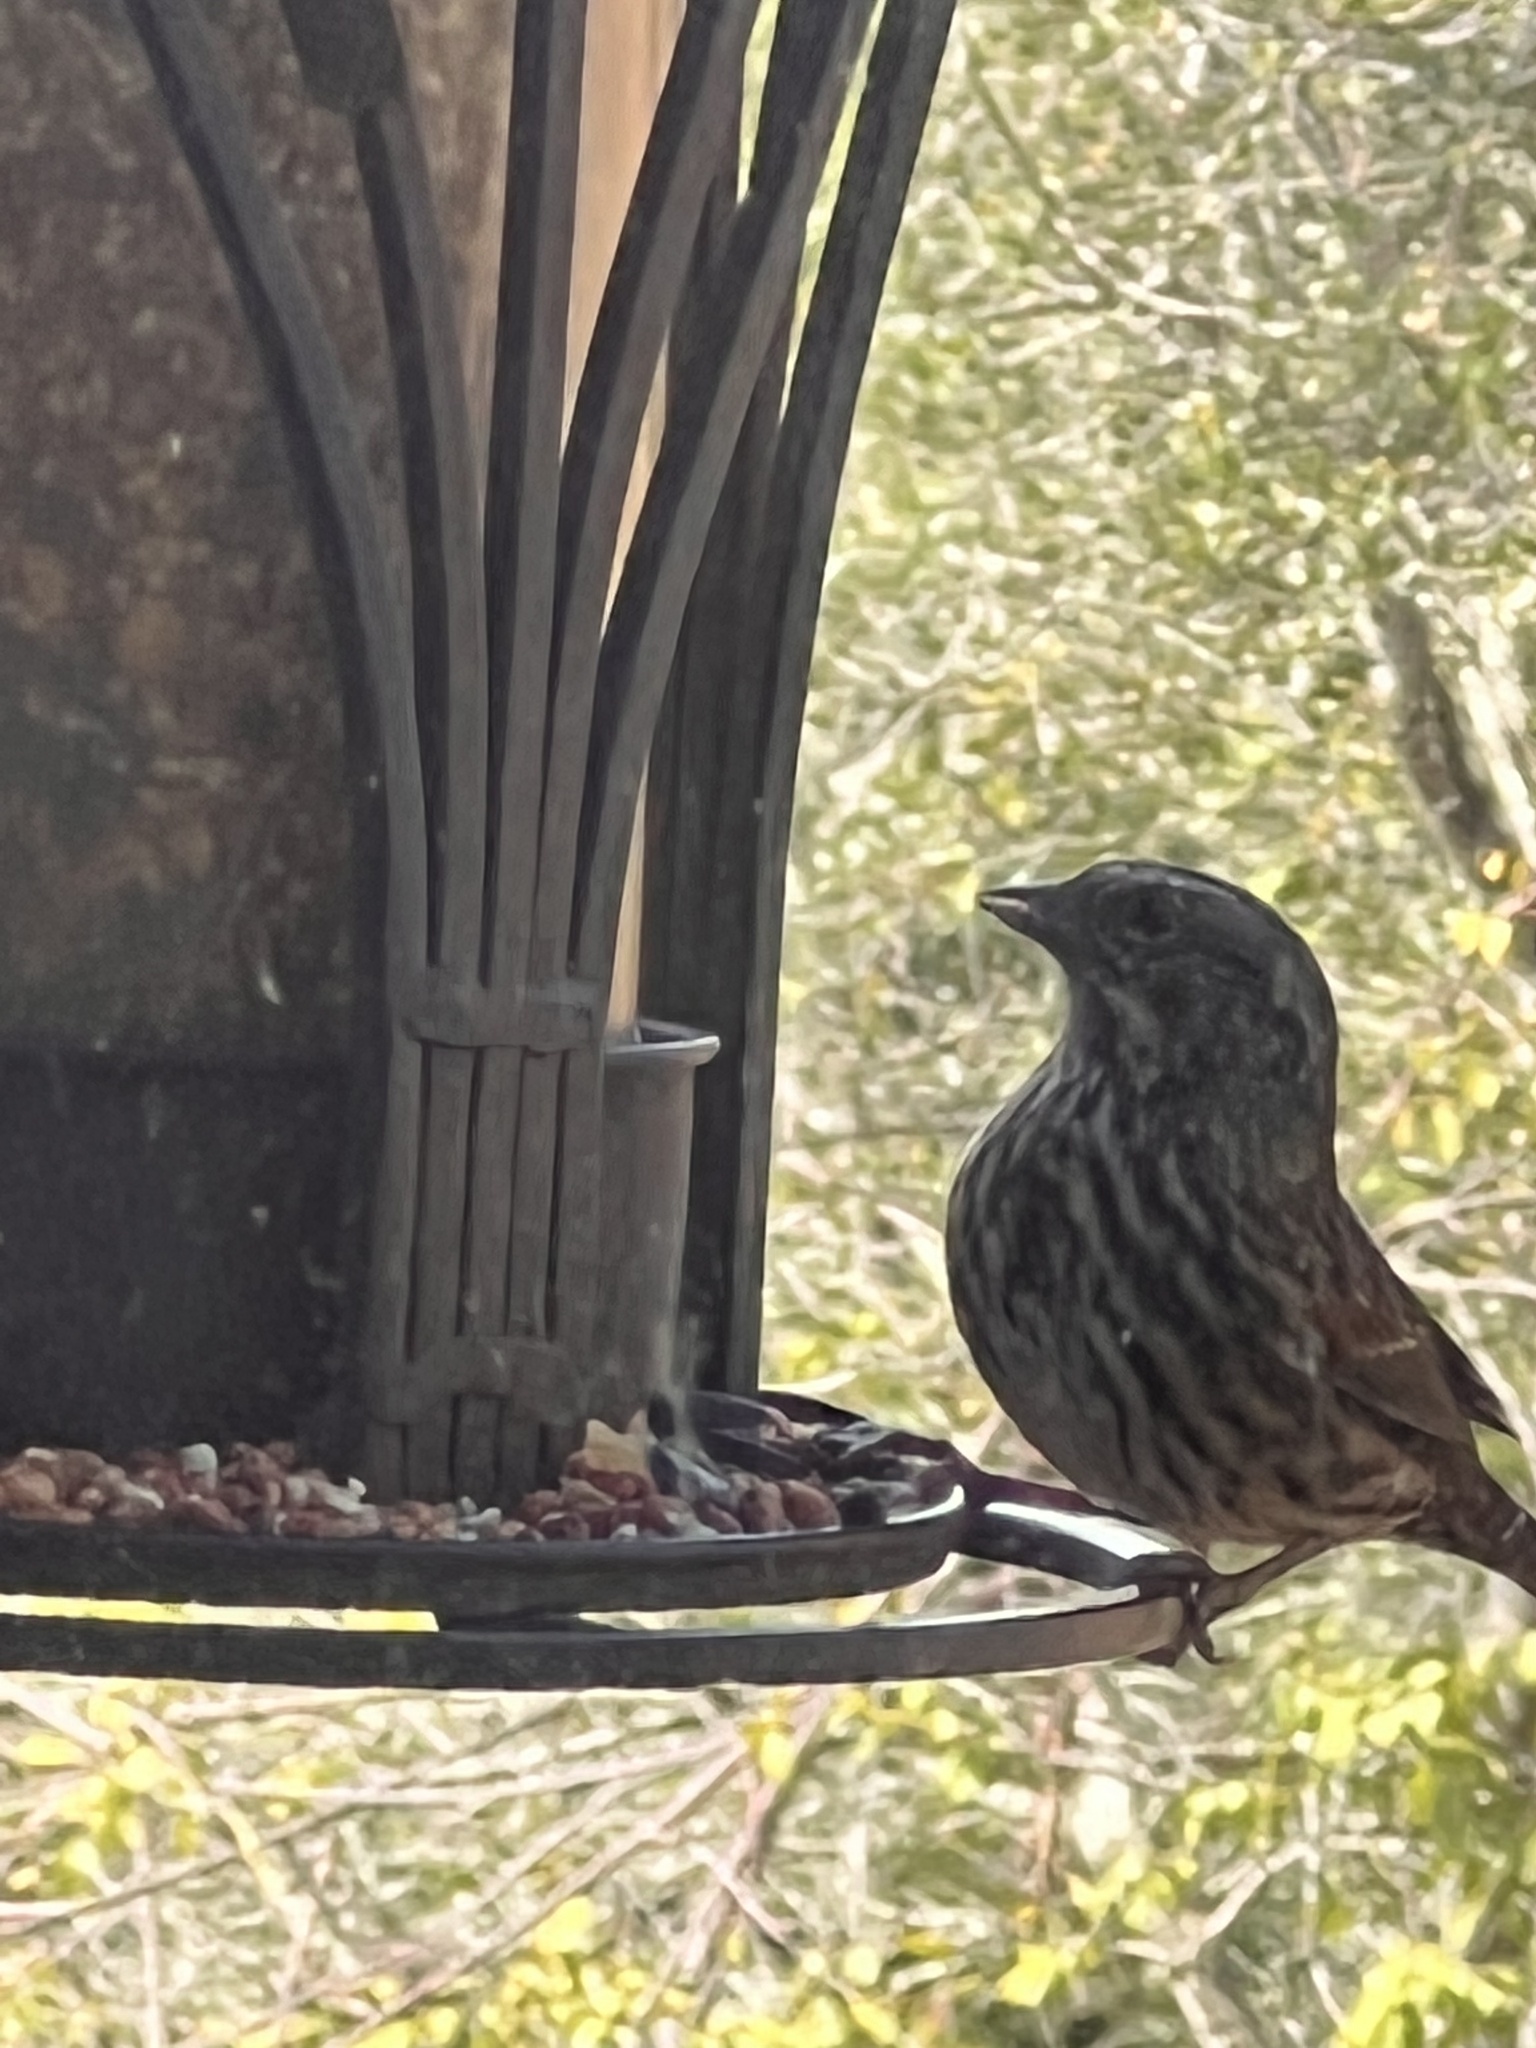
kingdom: Animalia
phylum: Chordata
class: Aves
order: Passeriformes
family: Passerellidae
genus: Melospiza
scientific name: Melospiza melodia
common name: Song sparrow
